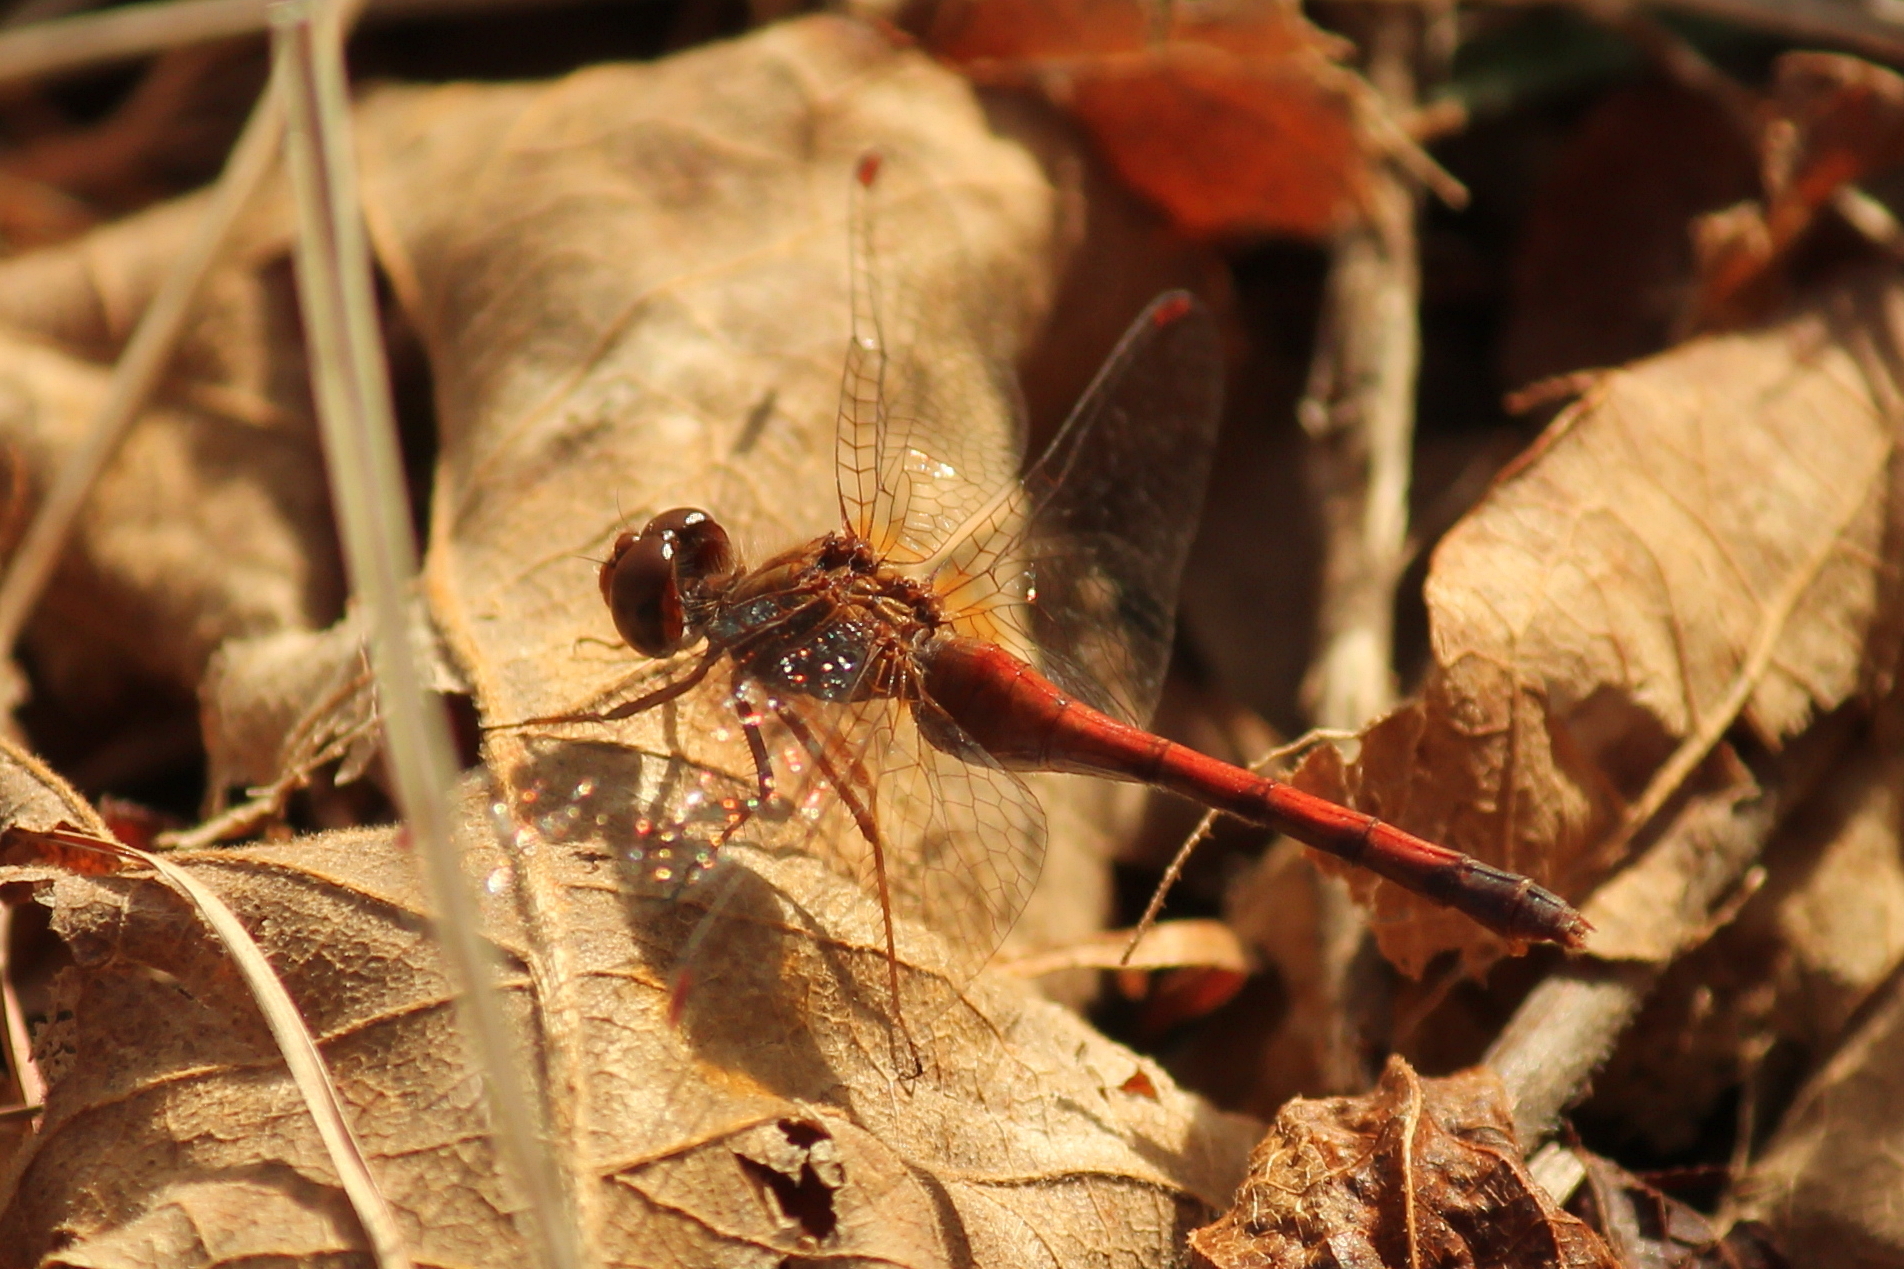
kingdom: Animalia
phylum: Arthropoda
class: Insecta
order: Odonata
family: Libellulidae
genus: Sympetrum
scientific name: Sympetrum vicinum
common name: Autumn meadowhawk
